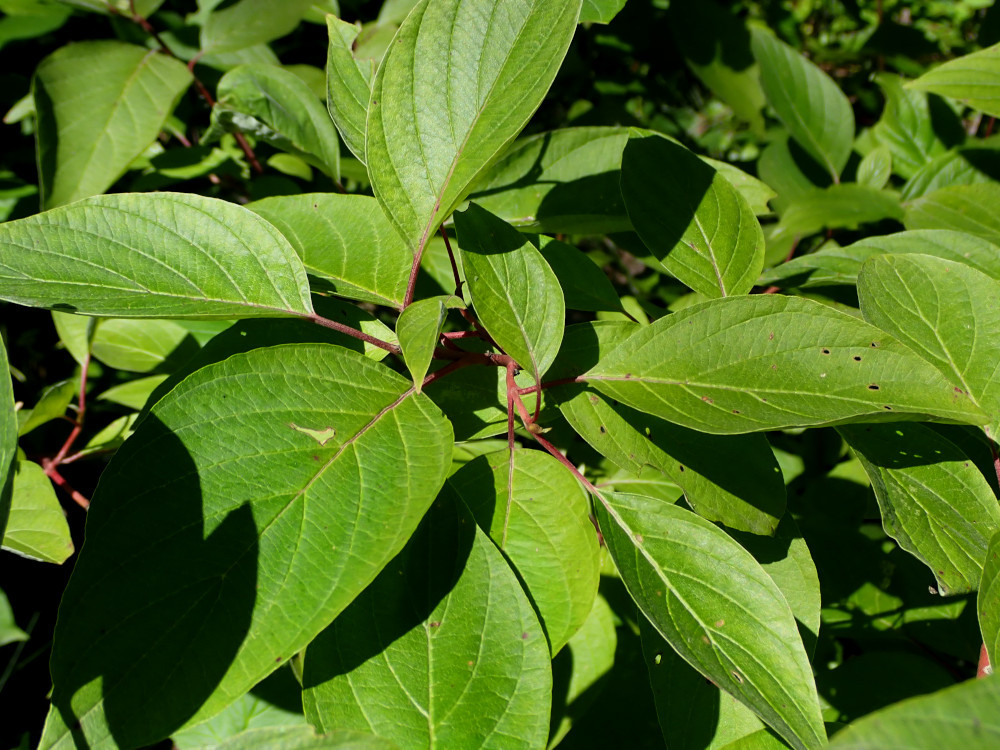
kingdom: Plantae
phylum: Tracheophyta
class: Magnoliopsida
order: Cornales
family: Cornaceae
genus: Cornus
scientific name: Cornus sericea
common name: Red-osier dogwood
